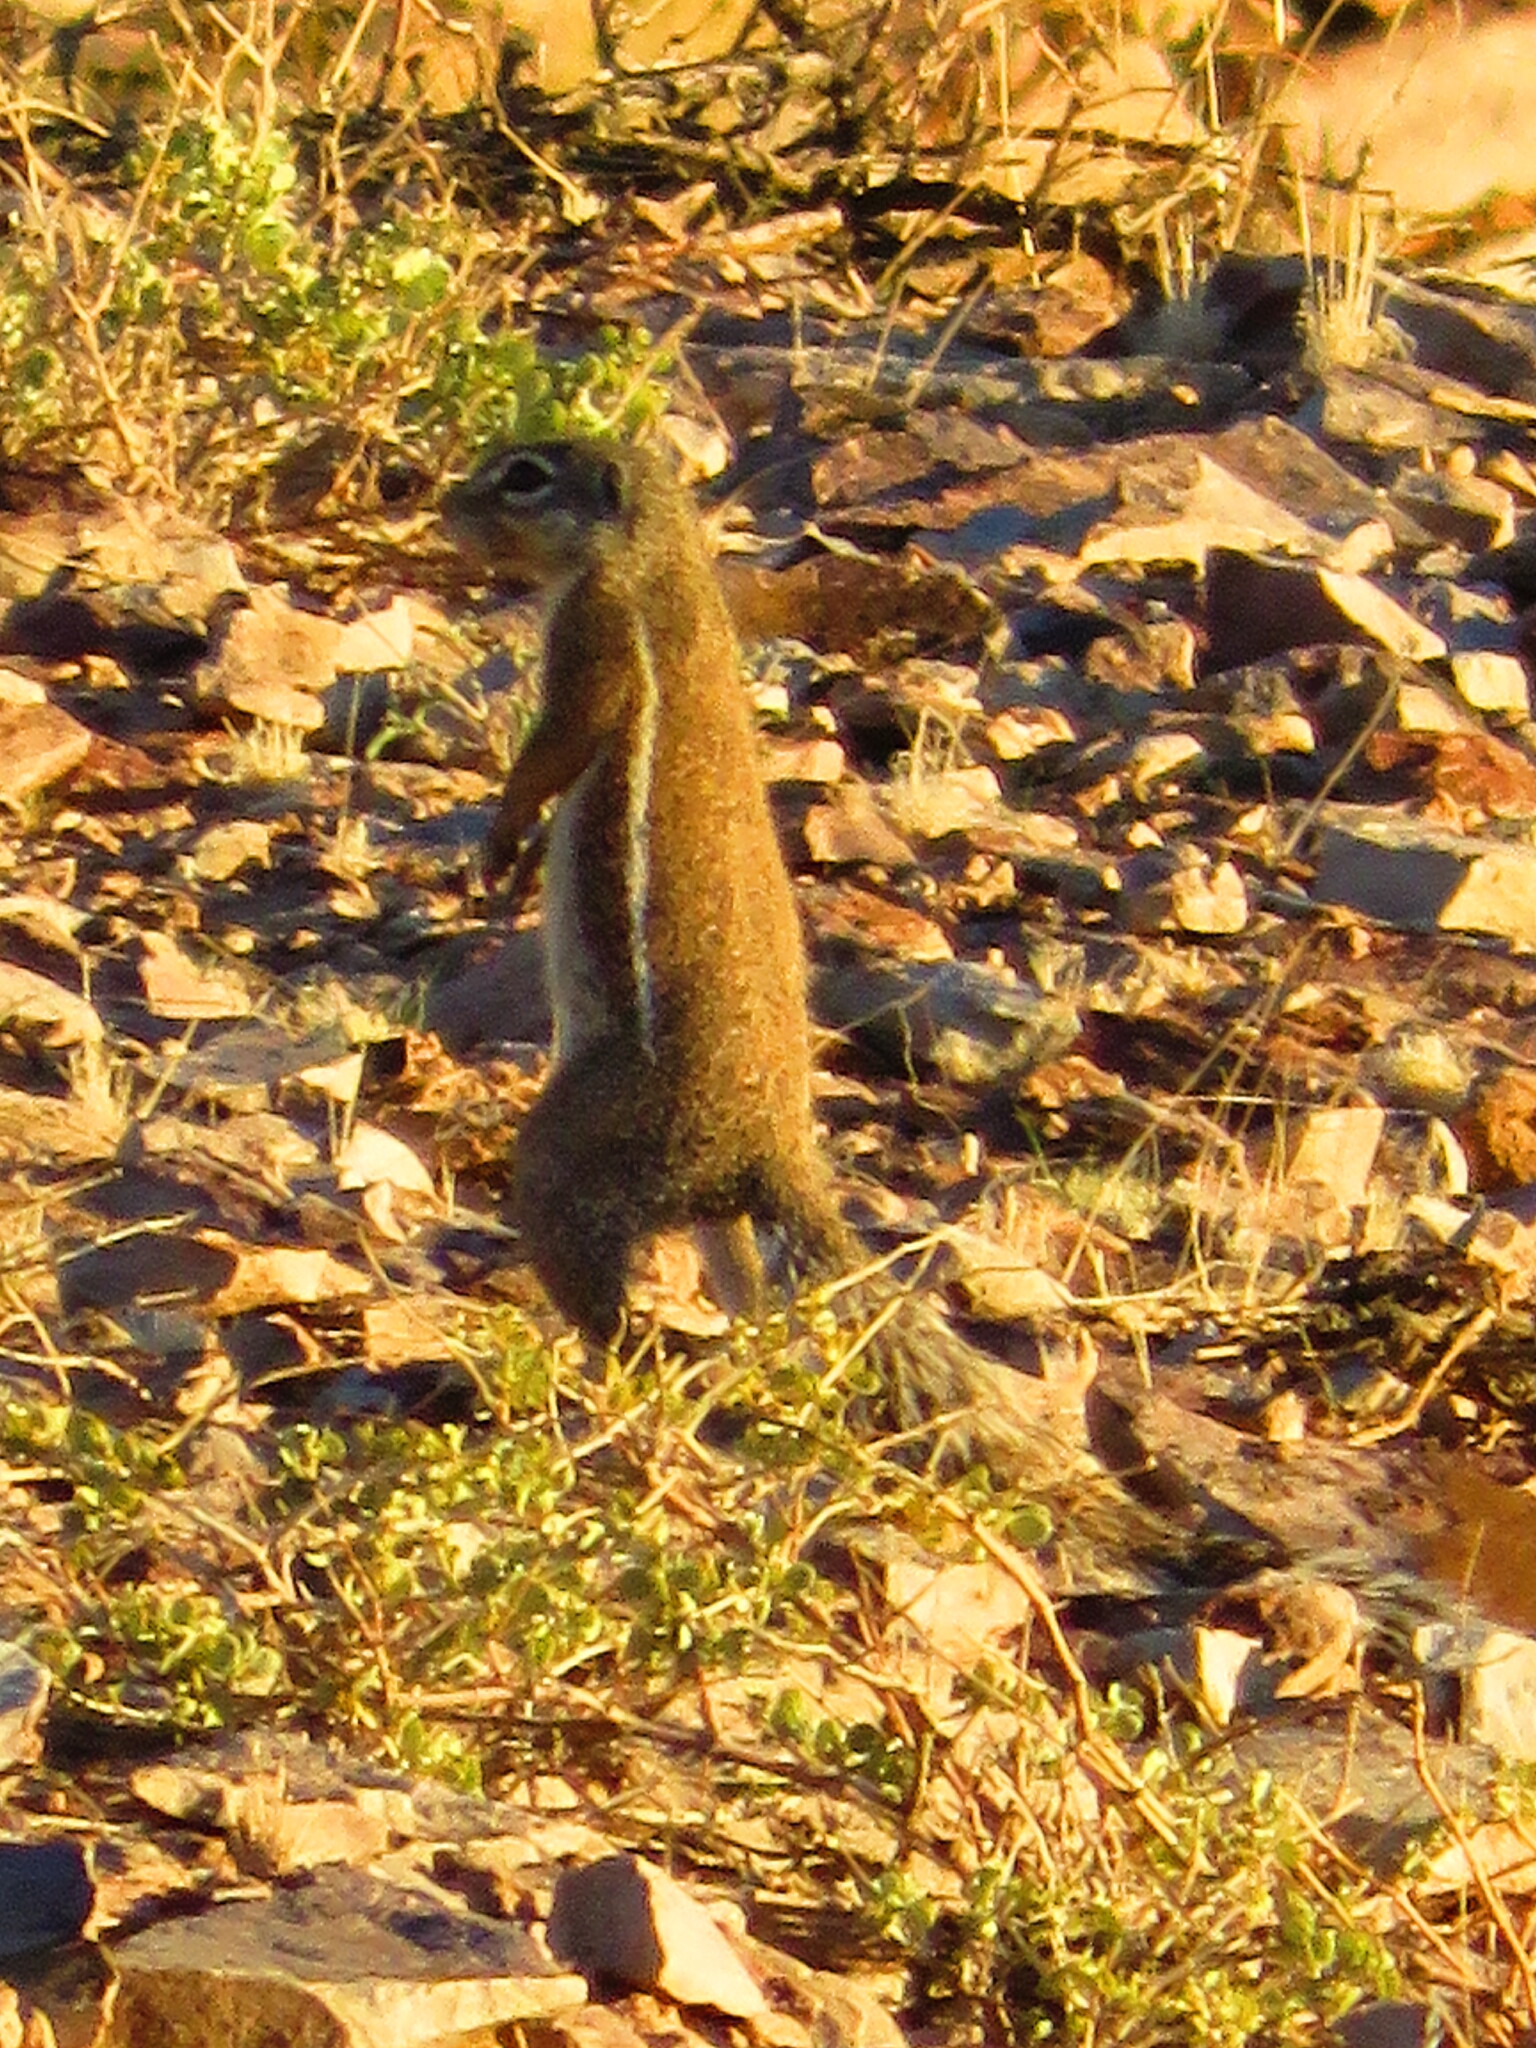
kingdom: Animalia
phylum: Chordata
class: Mammalia
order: Rodentia
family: Sciuridae
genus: Xerus
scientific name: Xerus inauris
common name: South african ground squirrel
